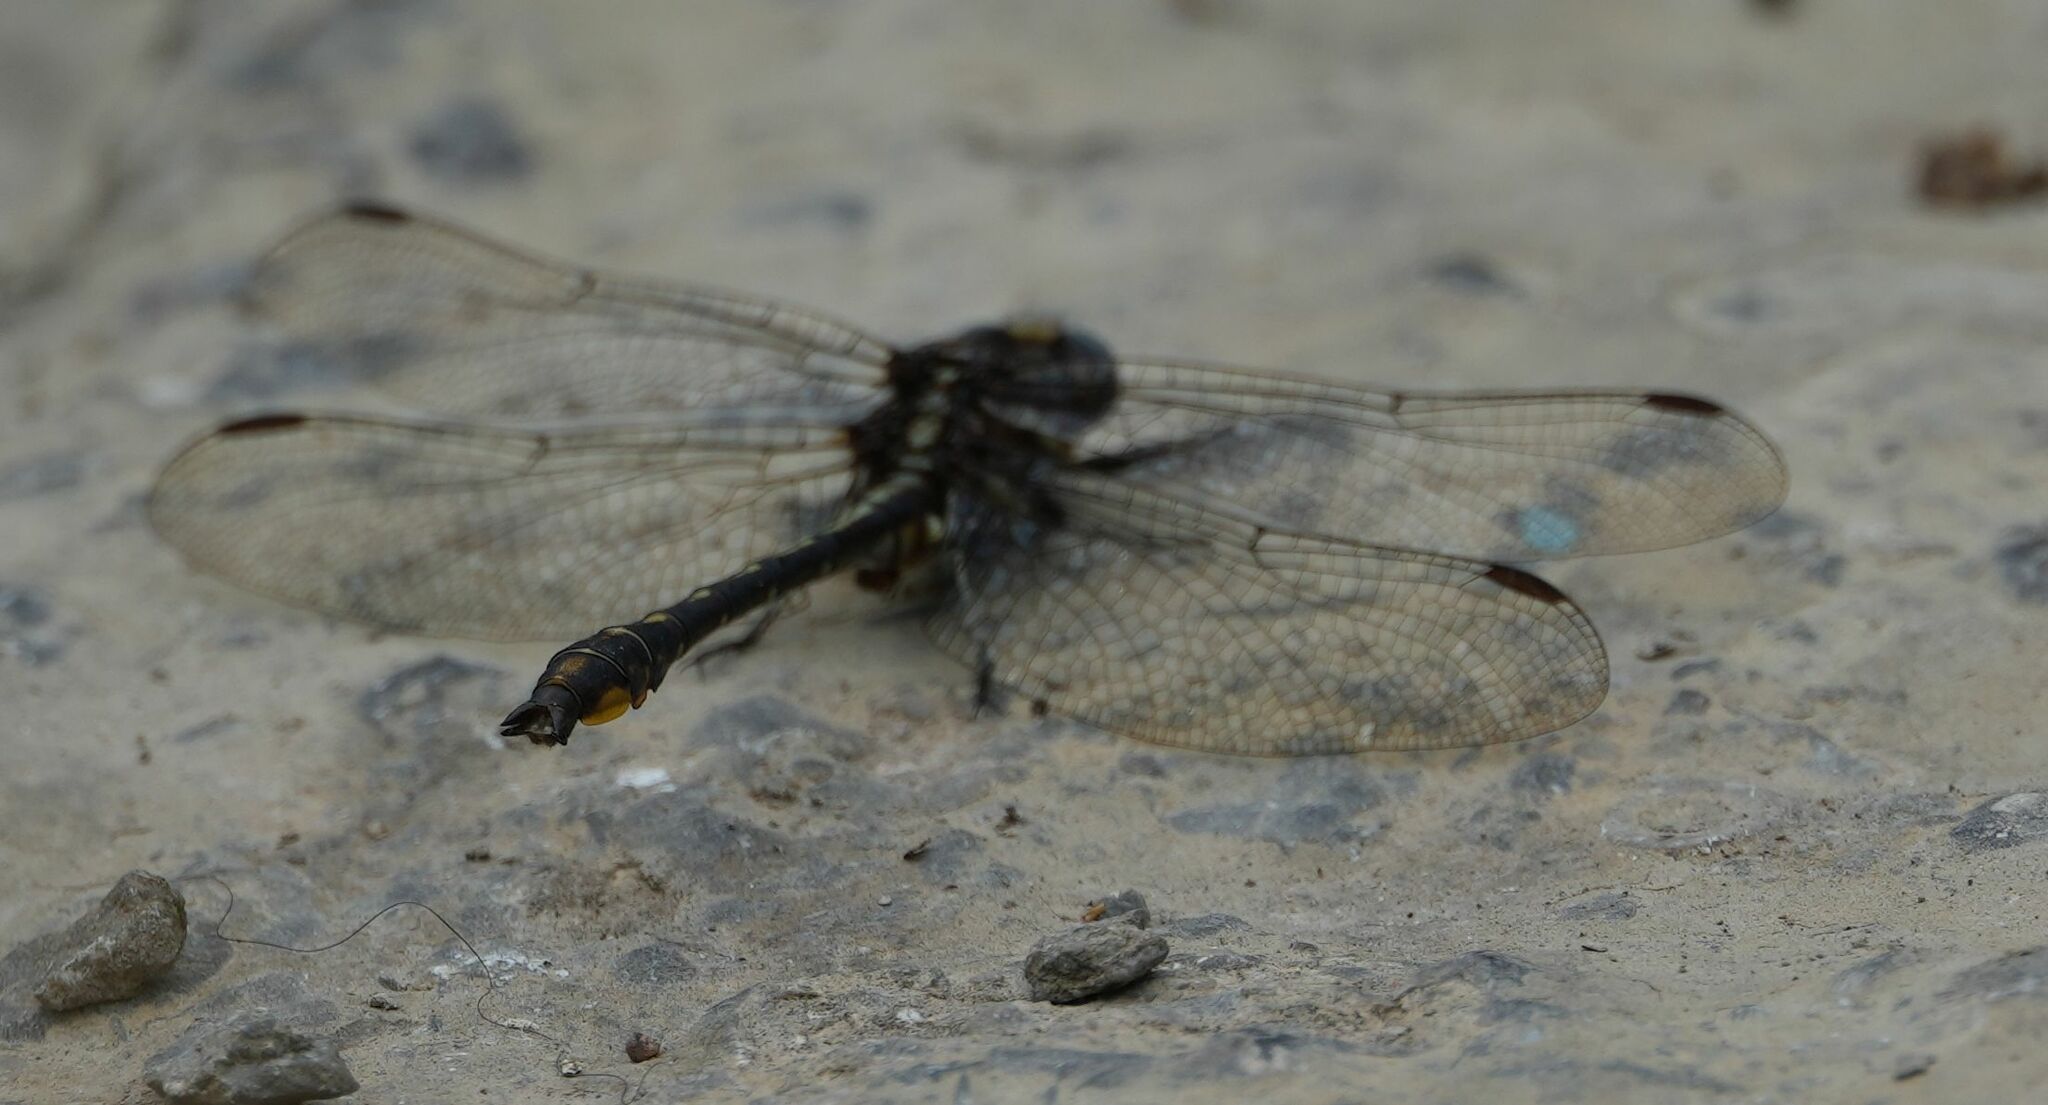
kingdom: Animalia
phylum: Arthropoda
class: Insecta
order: Odonata
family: Gomphidae
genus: Phanogomphus
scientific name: Phanogomphus exilis
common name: Lancet clubtail
